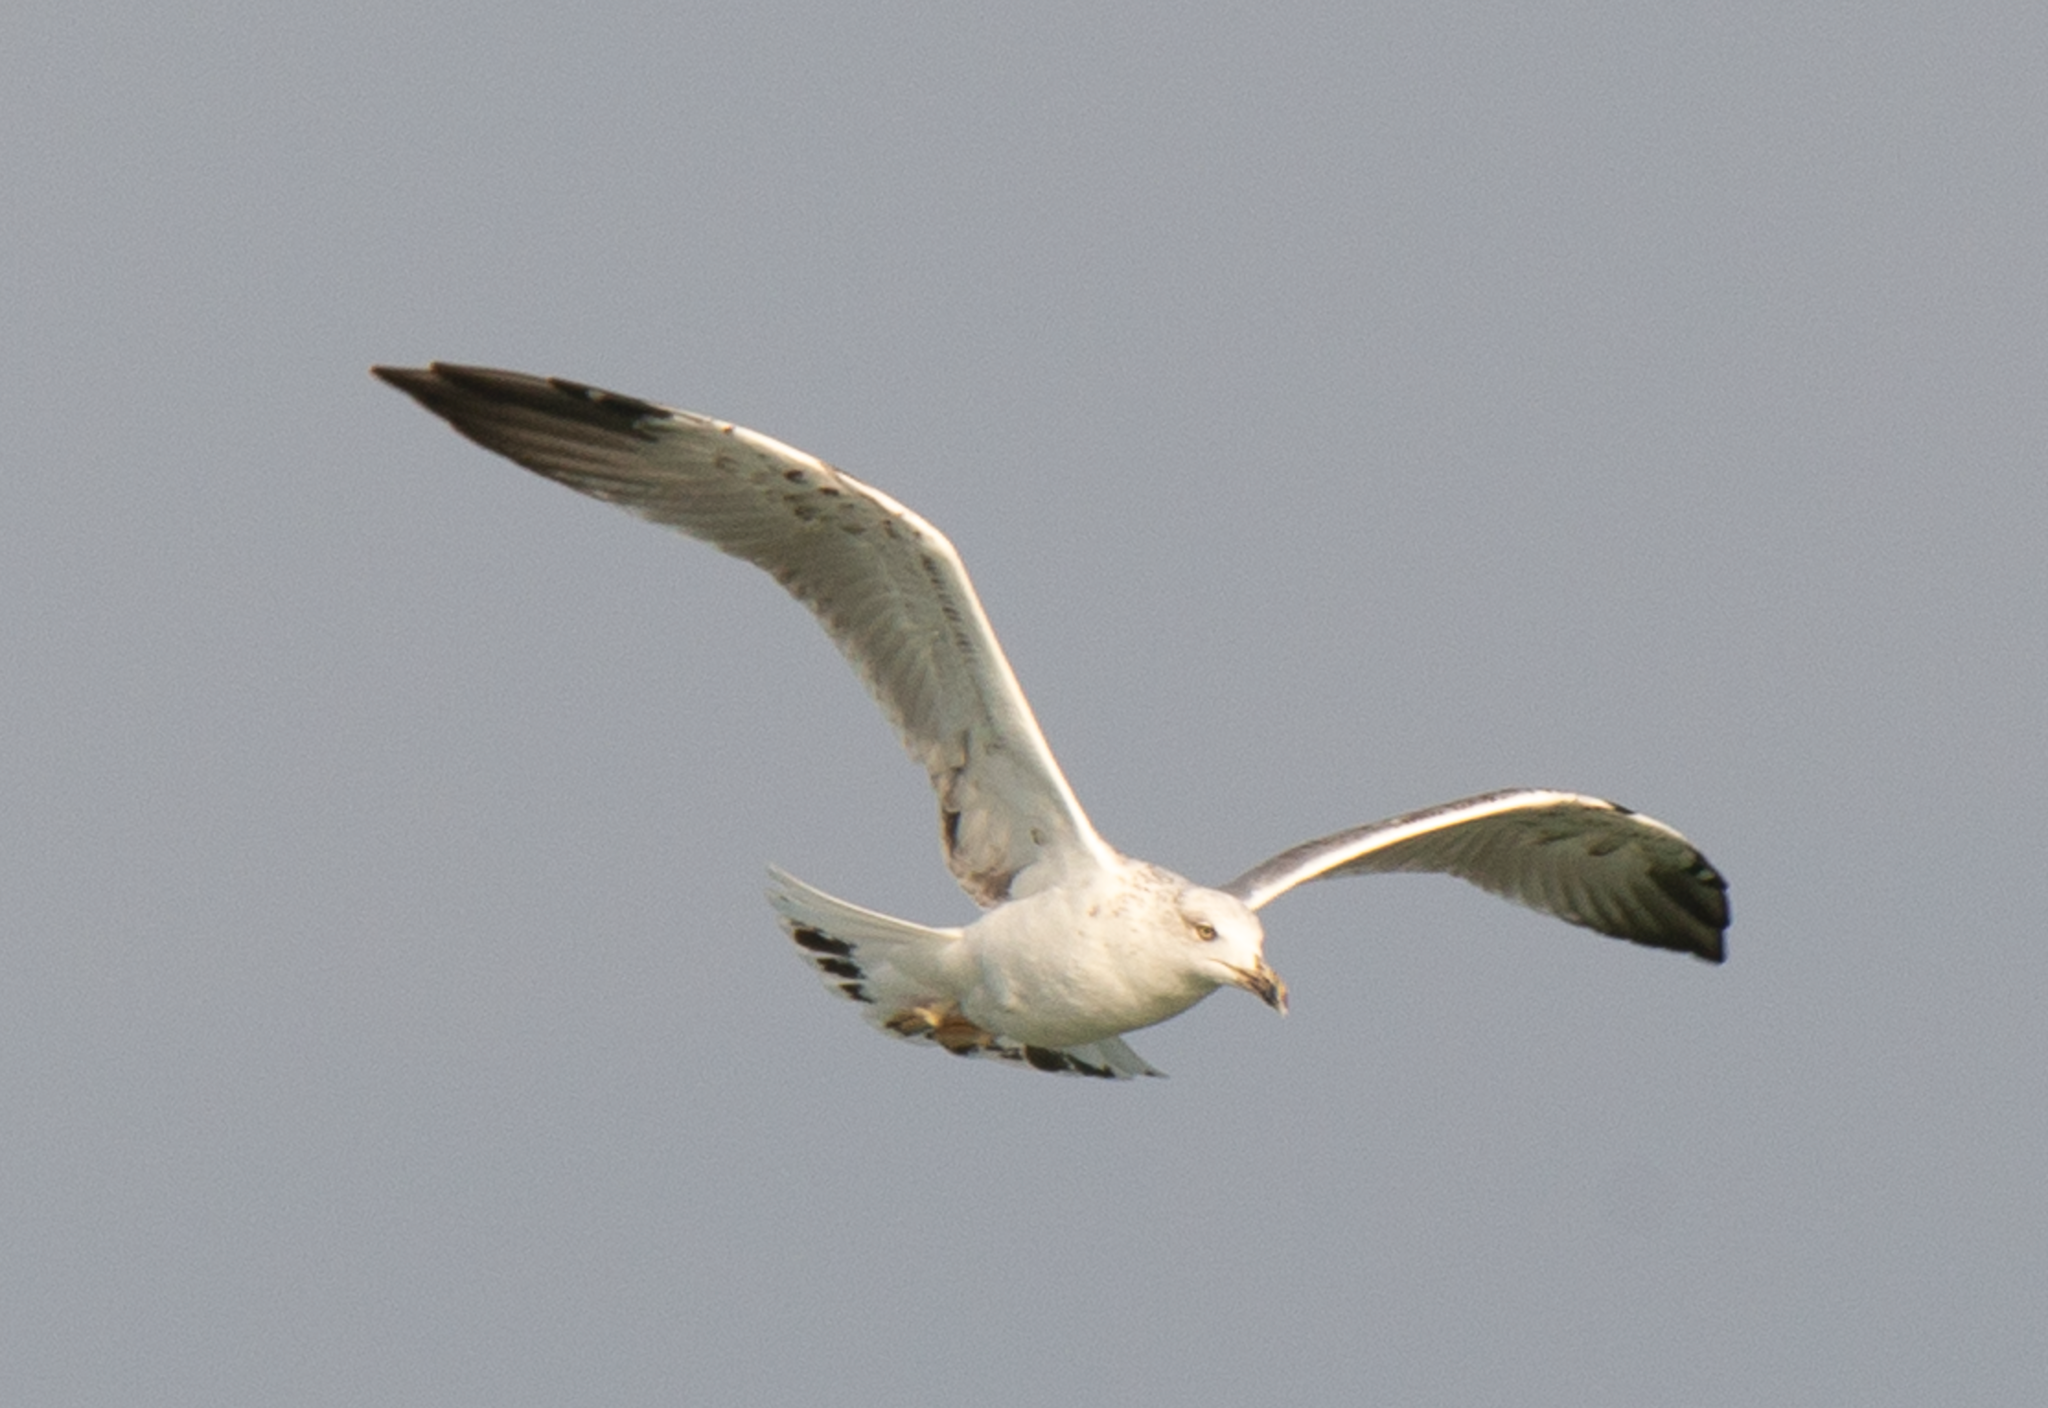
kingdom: Animalia
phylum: Chordata
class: Aves
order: Charadriiformes
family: Laridae
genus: Larus
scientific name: Larus michahellis
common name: Yellow-legged gull
